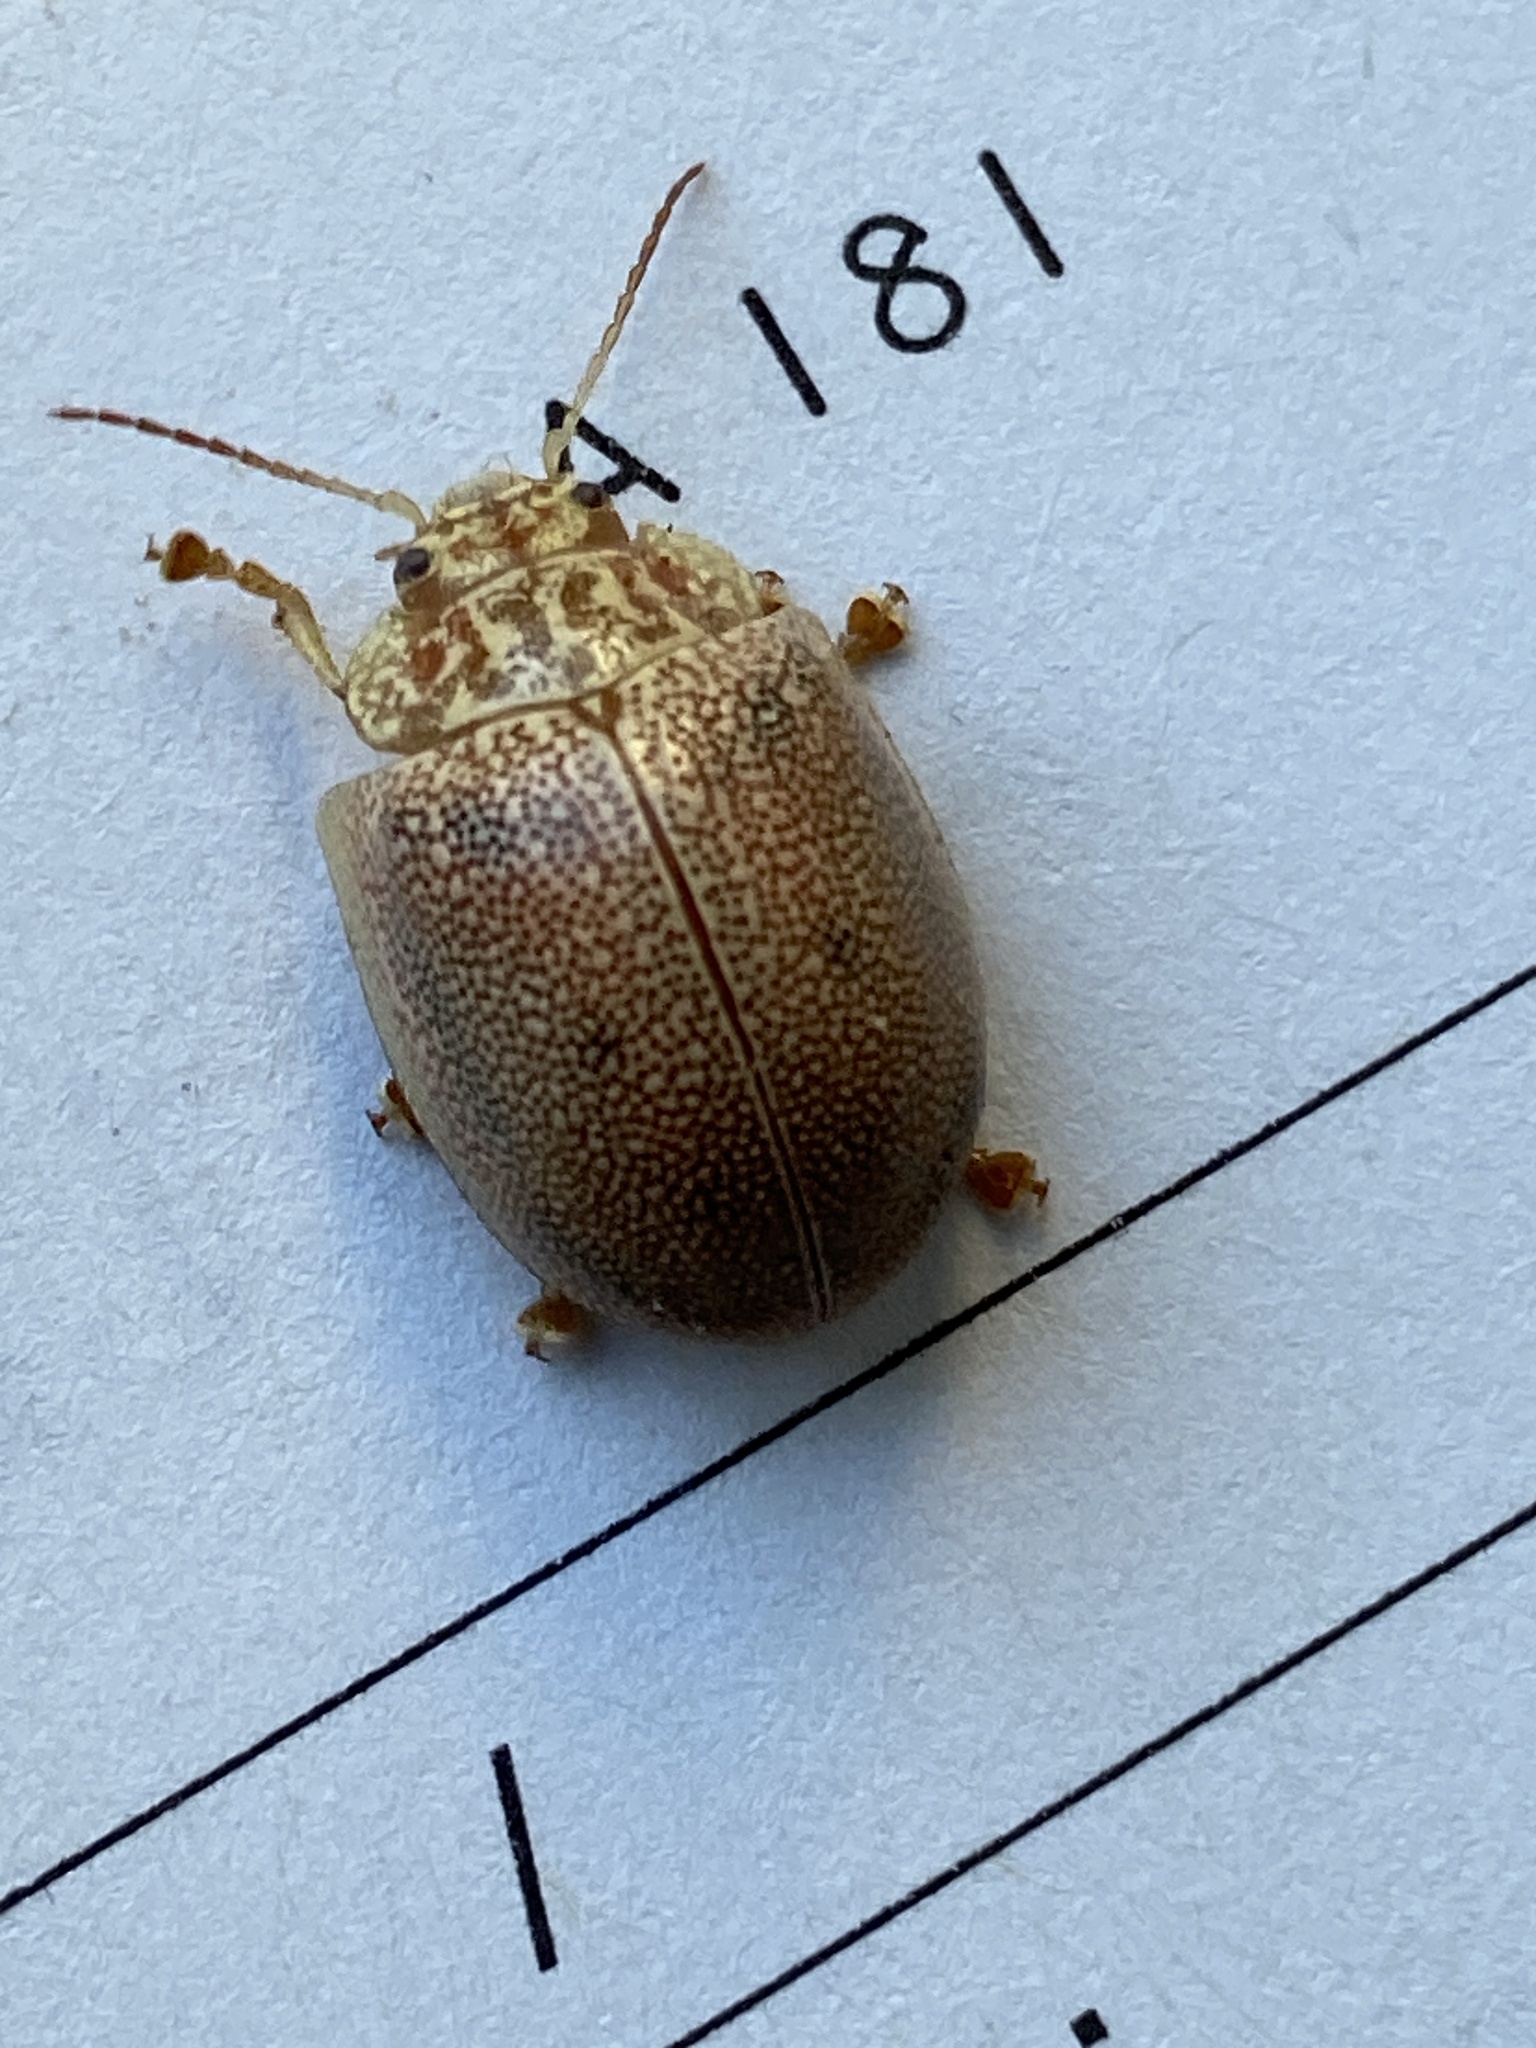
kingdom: Animalia
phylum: Arthropoda
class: Insecta
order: Coleoptera
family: Chrysomelidae
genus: Paropsis
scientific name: Paropsis
